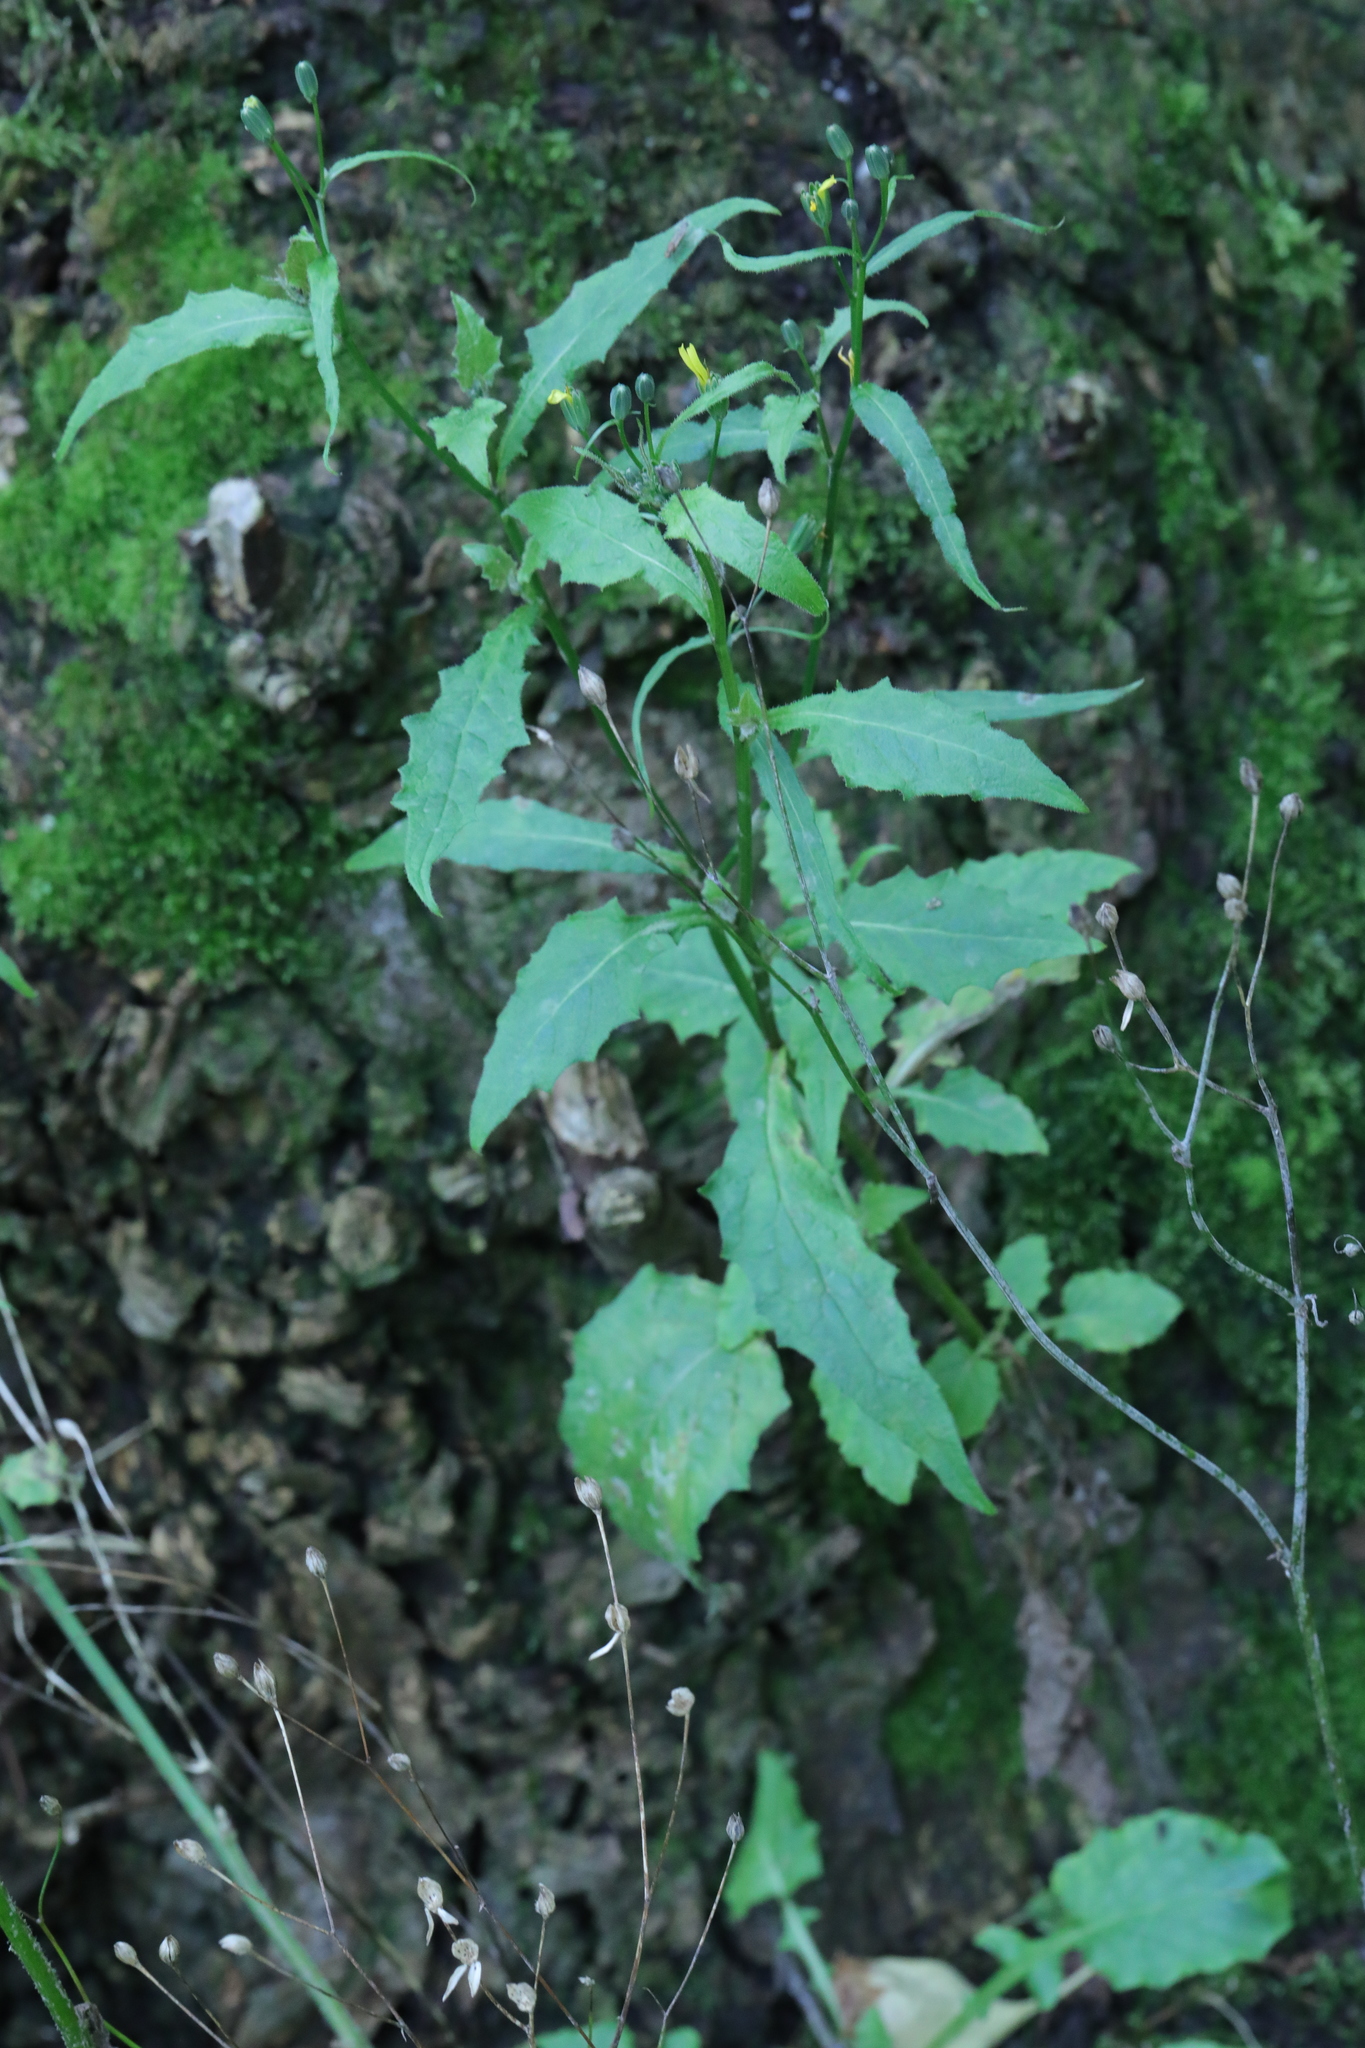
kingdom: Plantae
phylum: Tracheophyta
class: Magnoliopsida
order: Asterales
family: Asteraceae
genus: Lapsana
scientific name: Lapsana communis
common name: Nipplewort
